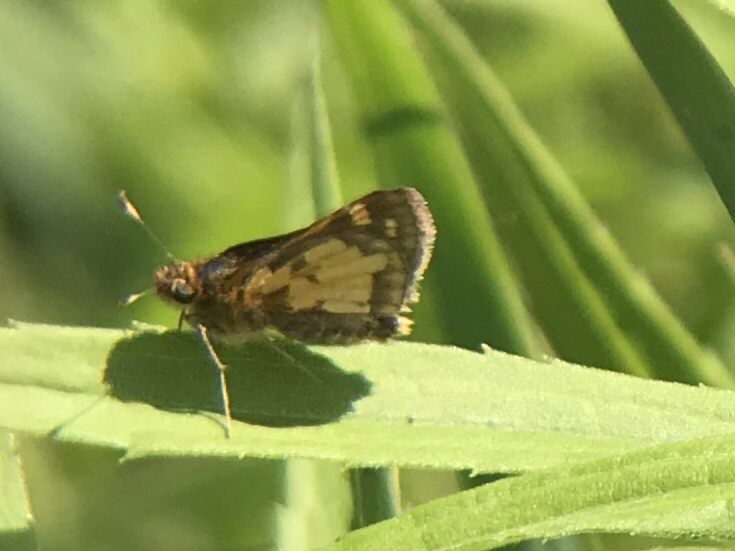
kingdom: Animalia
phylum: Arthropoda
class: Insecta
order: Lepidoptera
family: Hesperiidae
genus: Polites
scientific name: Polites coras
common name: Peck's skipper
